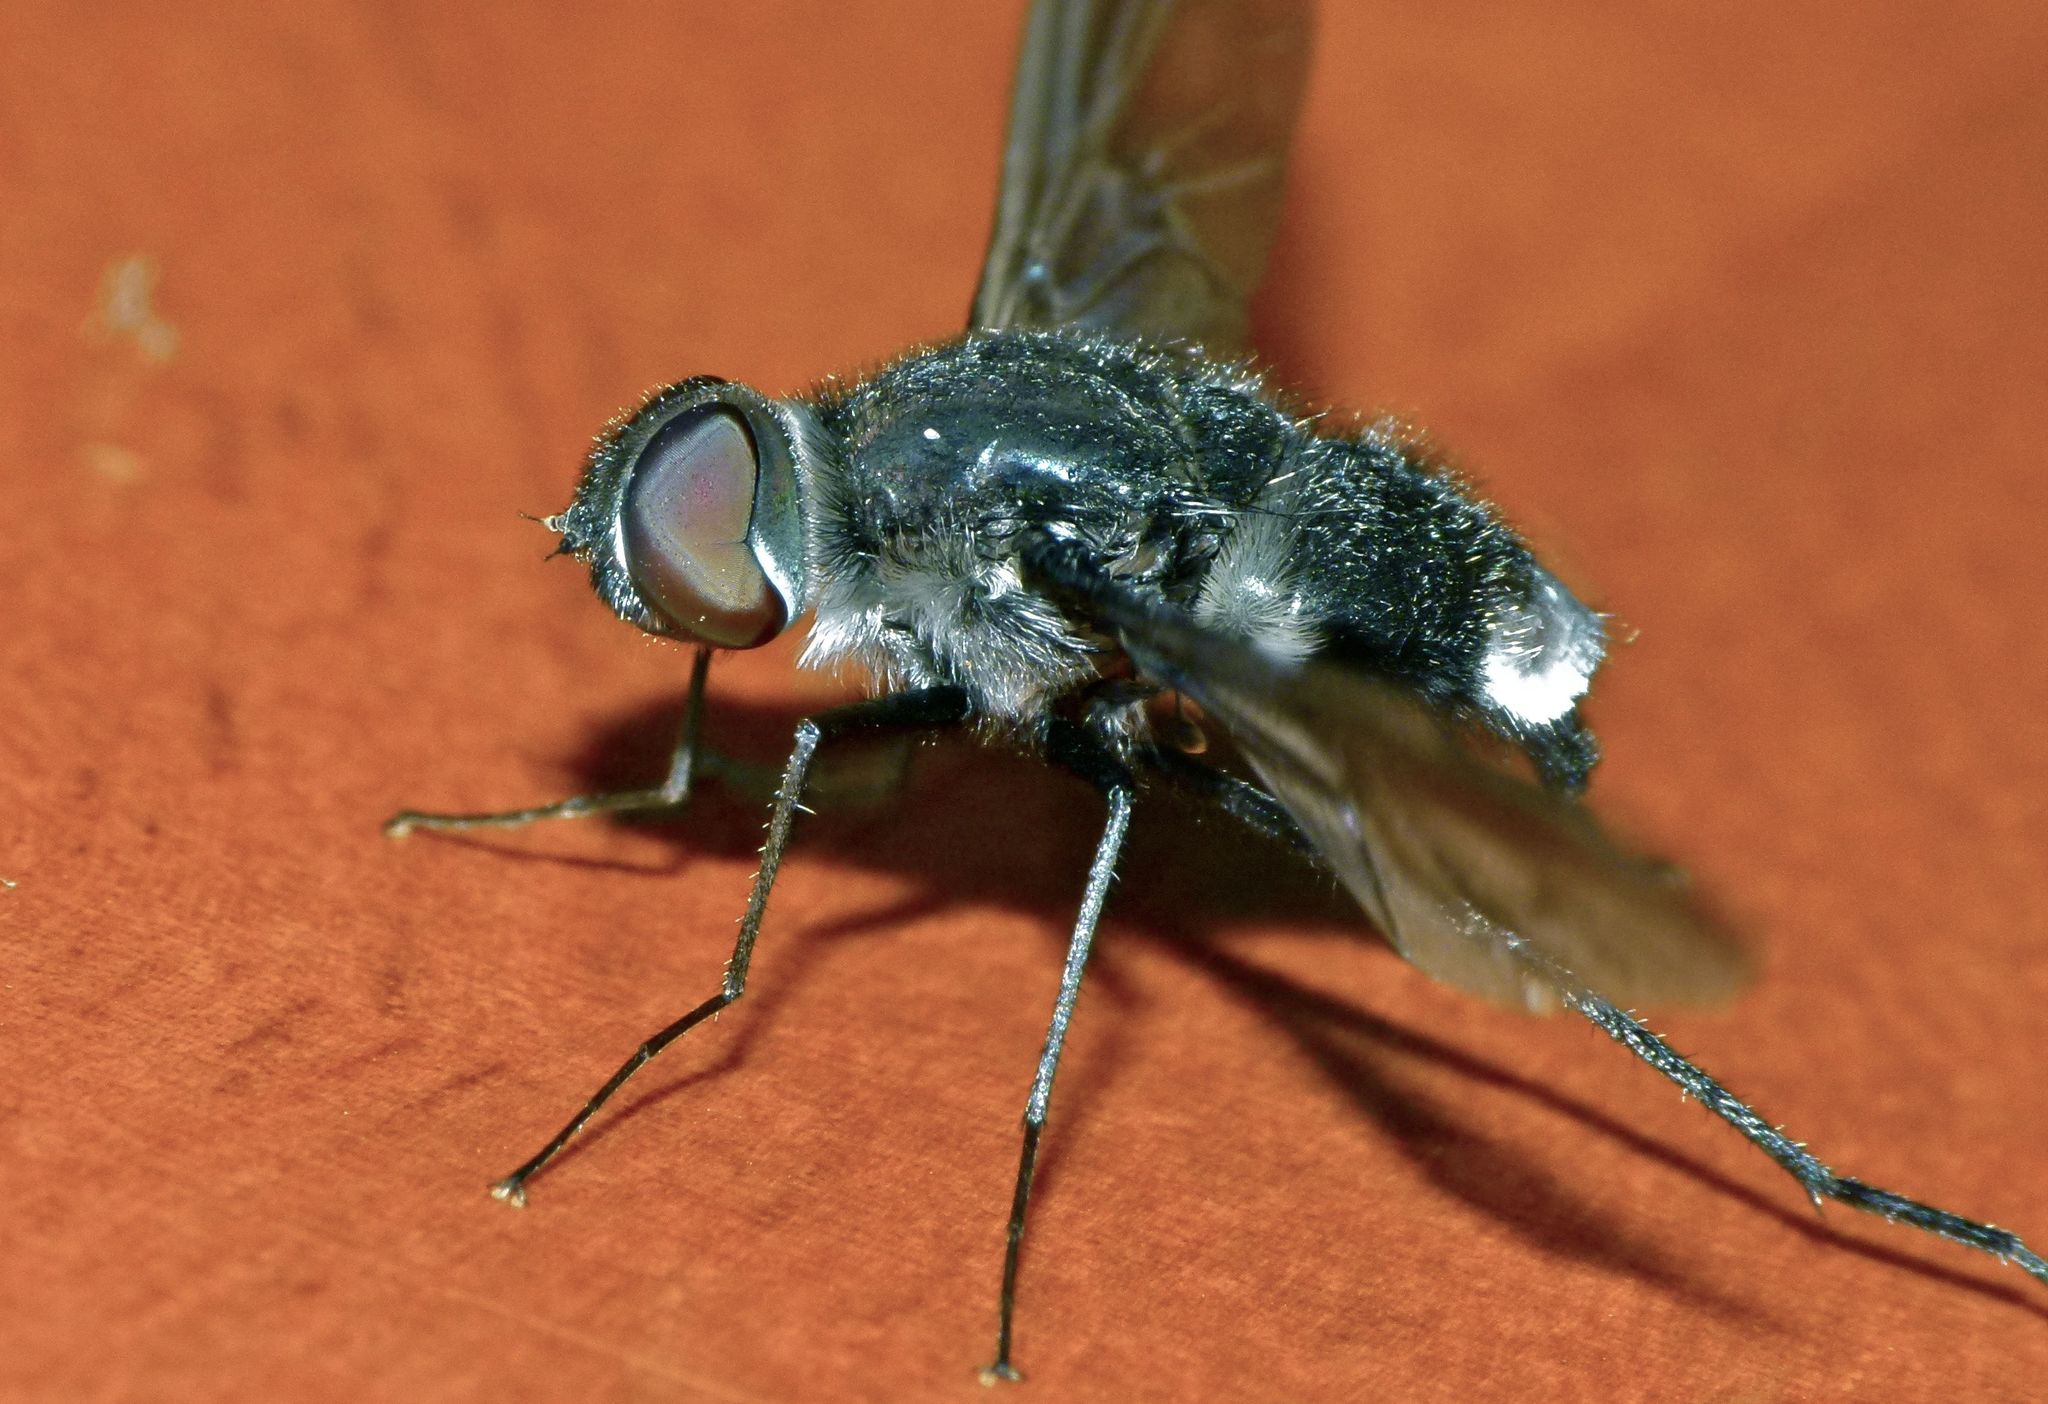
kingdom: Animalia
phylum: Arthropoda
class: Insecta
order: Diptera
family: Bombyliidae
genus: Brachyanax
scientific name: Brachyanax aterrimus
